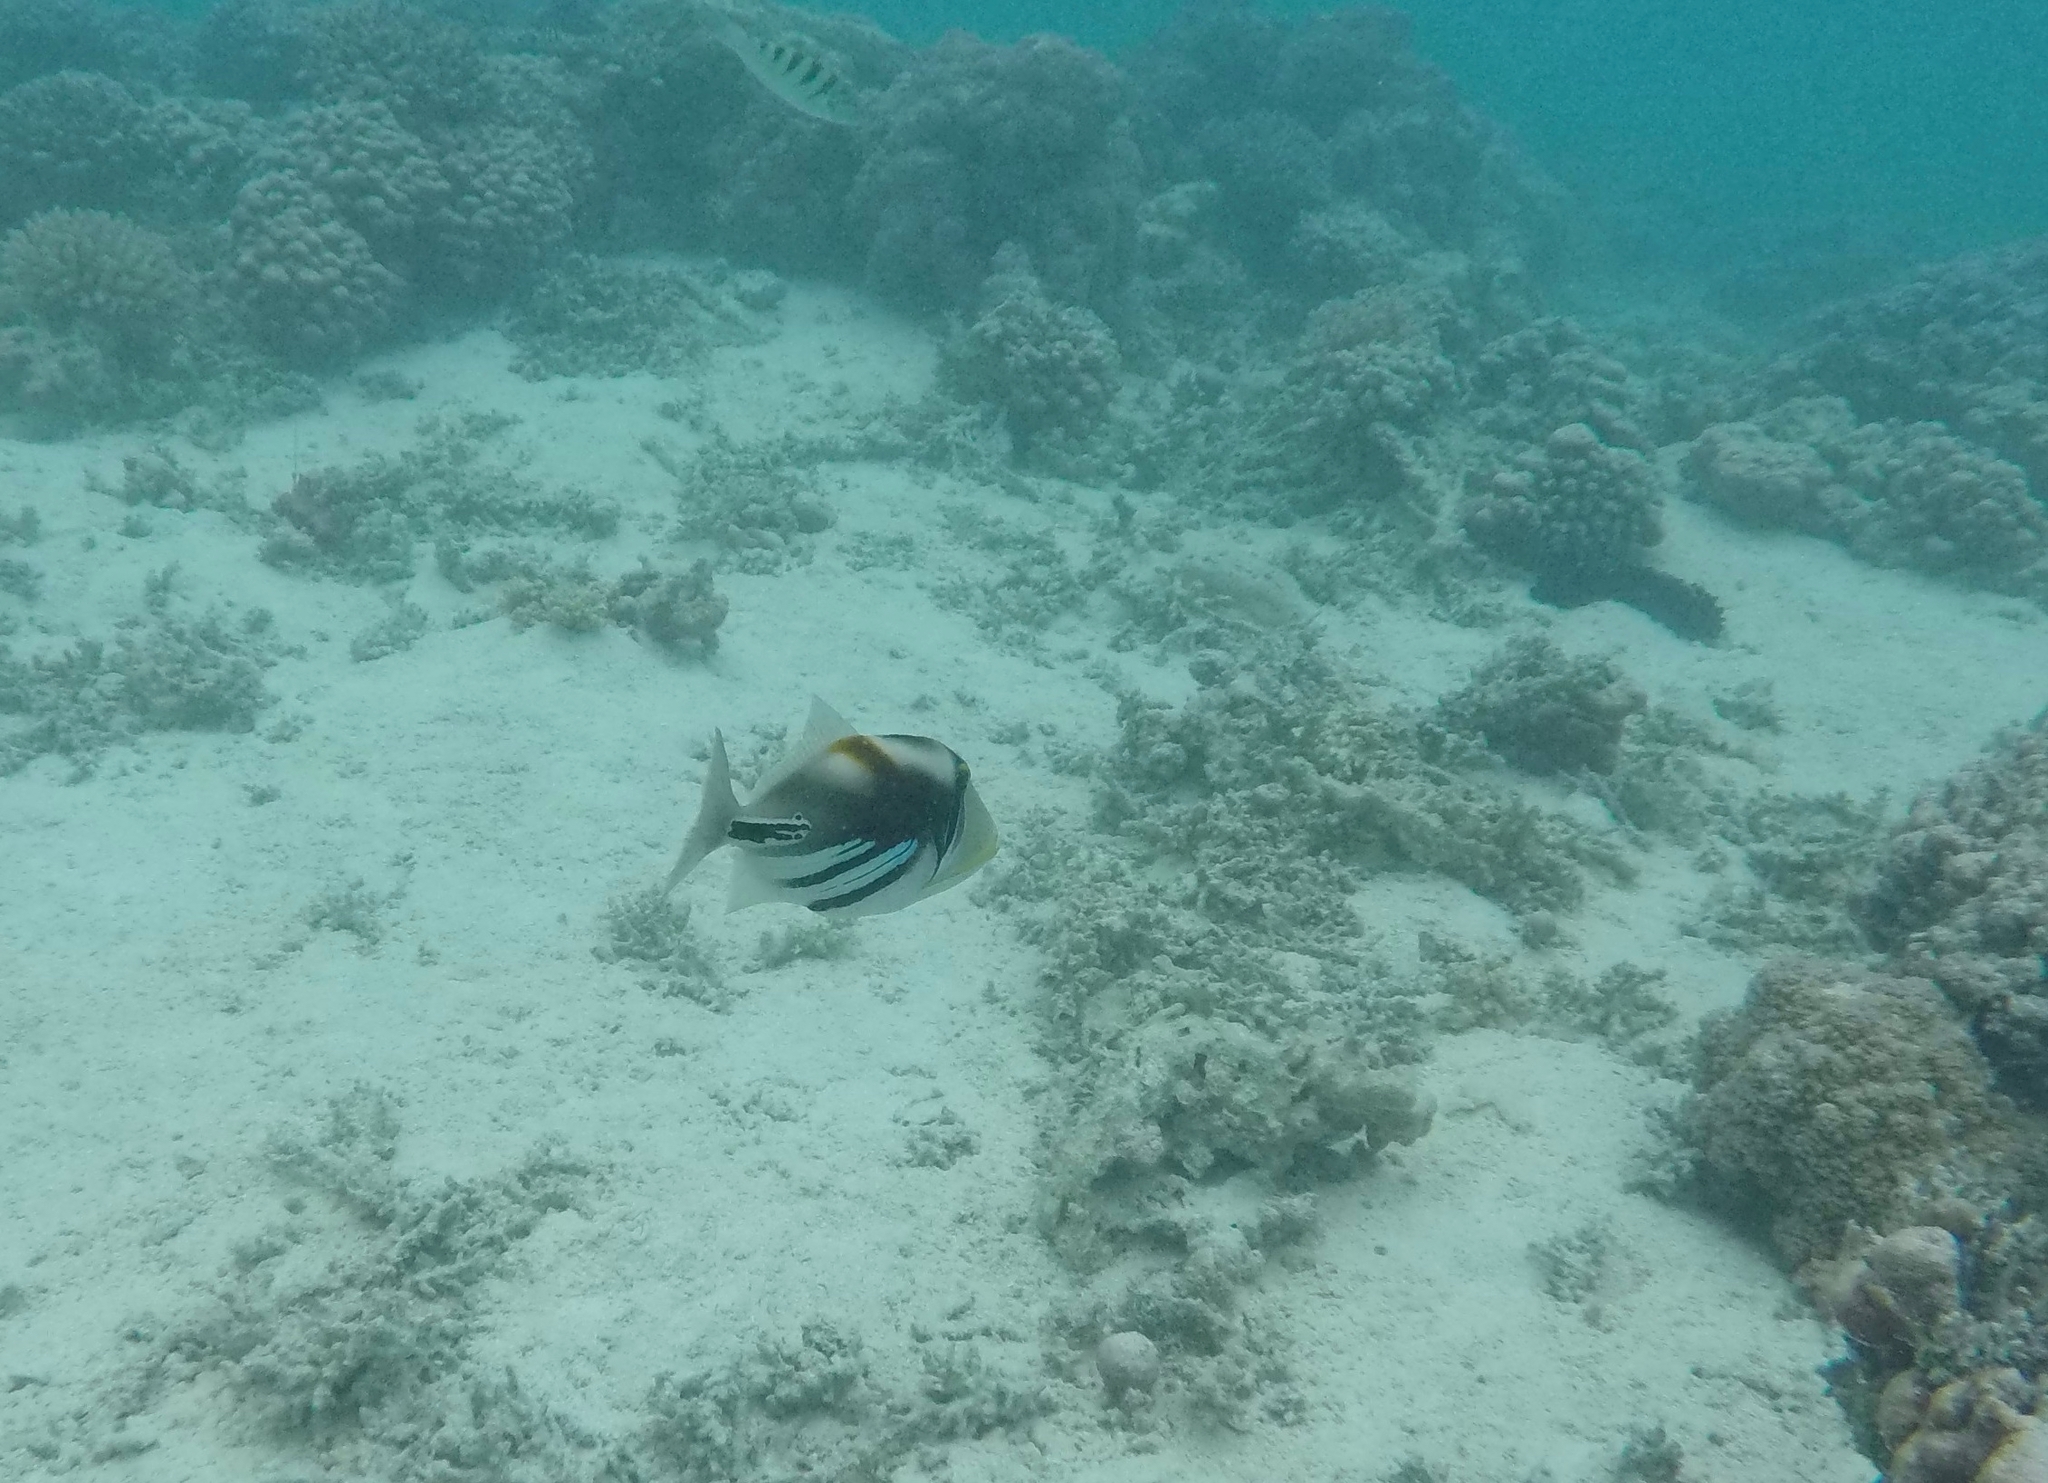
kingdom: Animalia
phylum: Chordata
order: Tetraodontiformes
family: Balistidae
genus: Rhinecanthus
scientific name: Rhinecanthus aculeatus
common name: White-banded triggerfish
